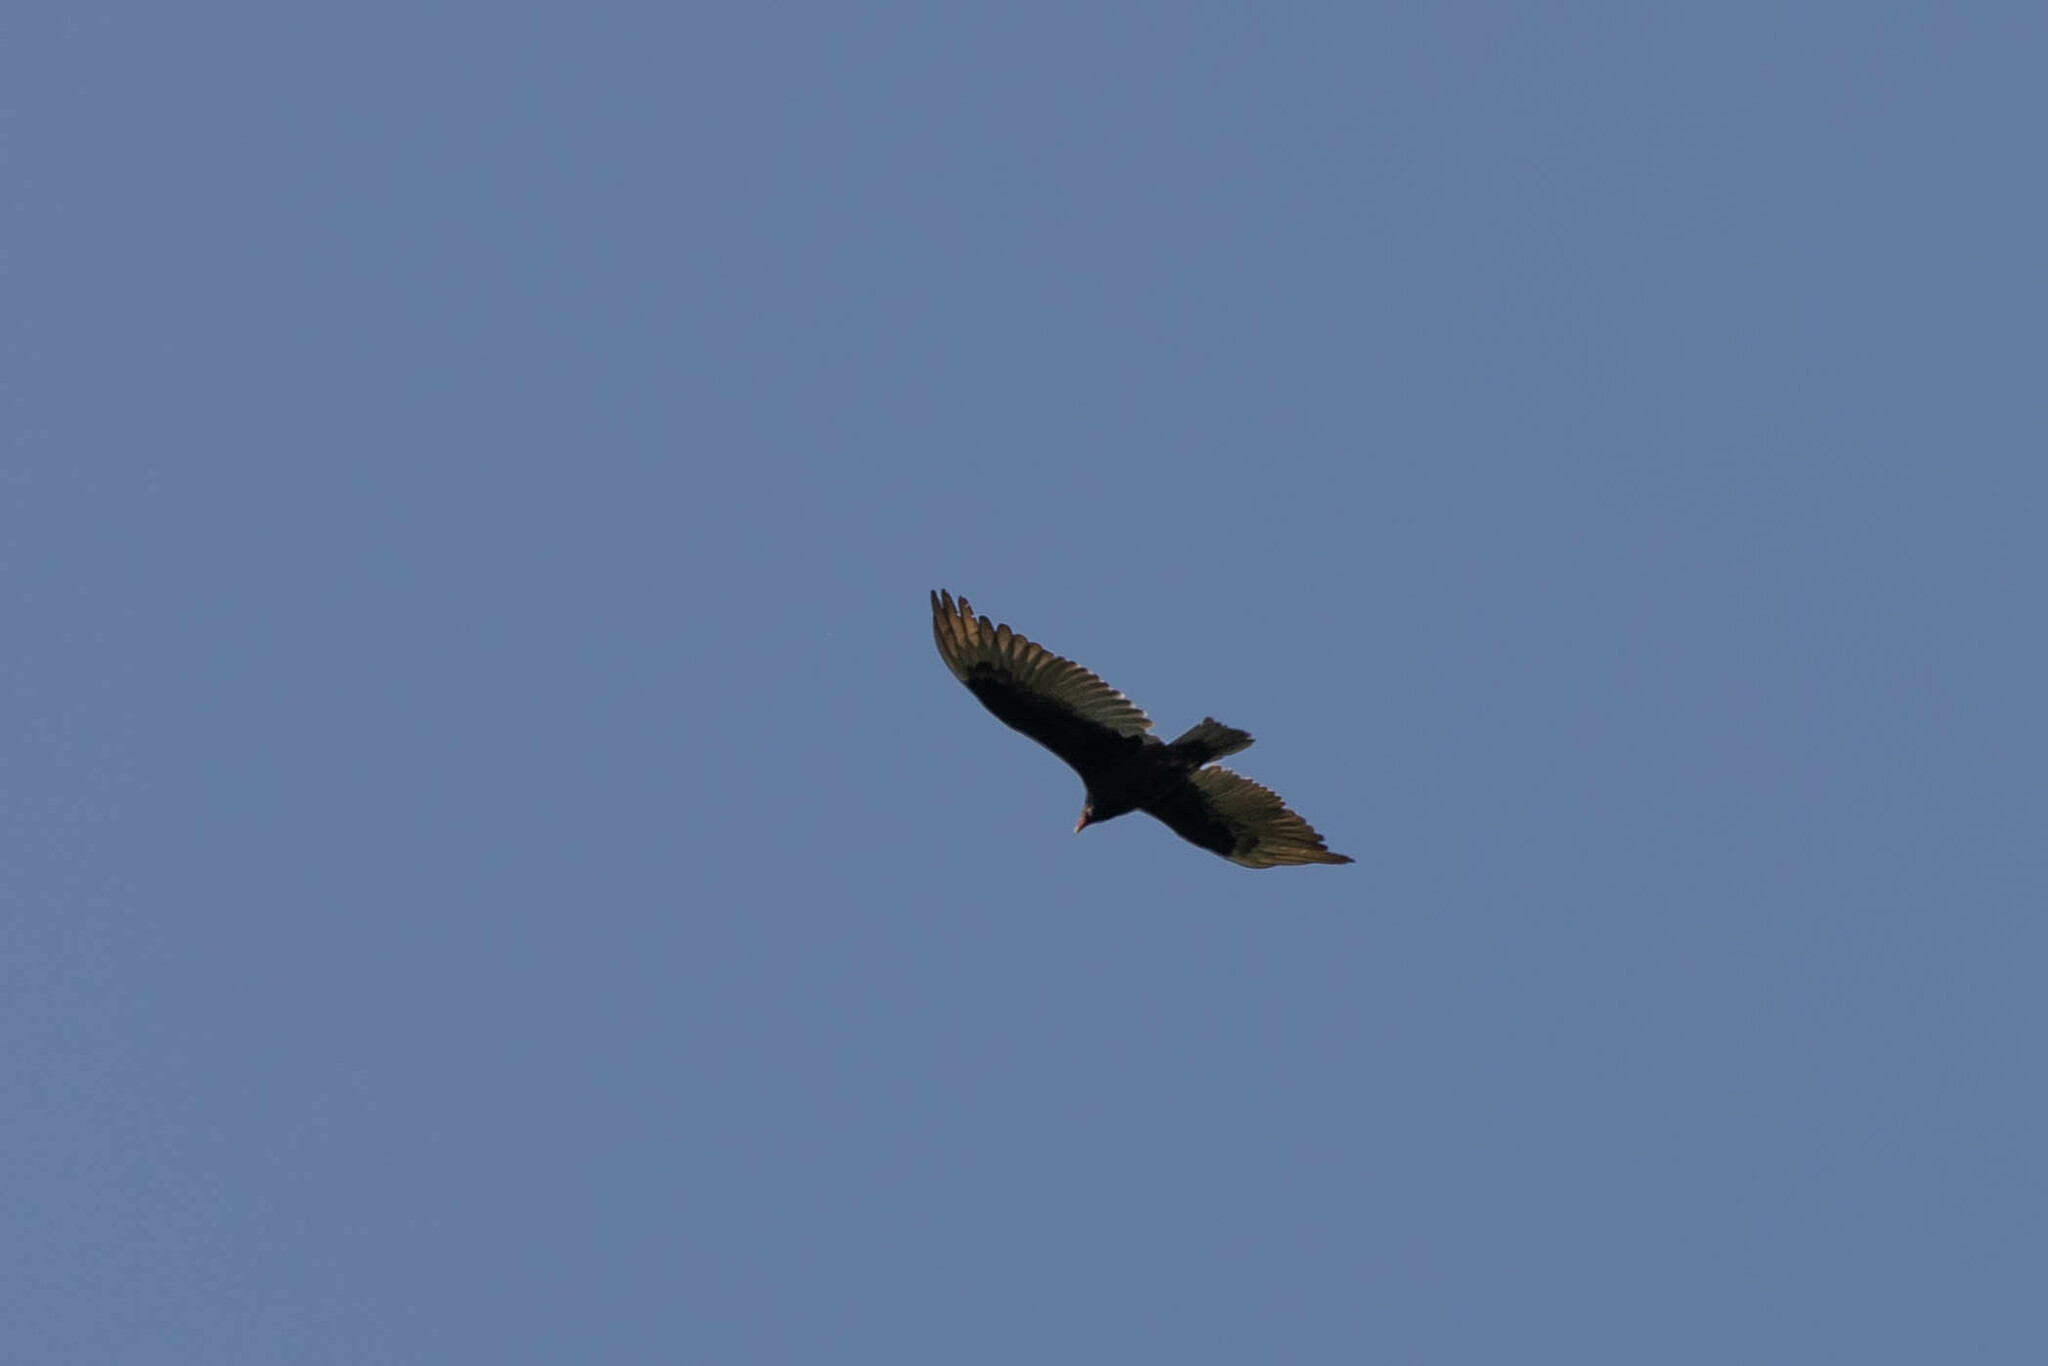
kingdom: Animalia
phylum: Chordata
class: Aves
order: Accipitriformes
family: Cathartidae
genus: Cathartes
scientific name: Cathartes aura
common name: Turkey vulture
